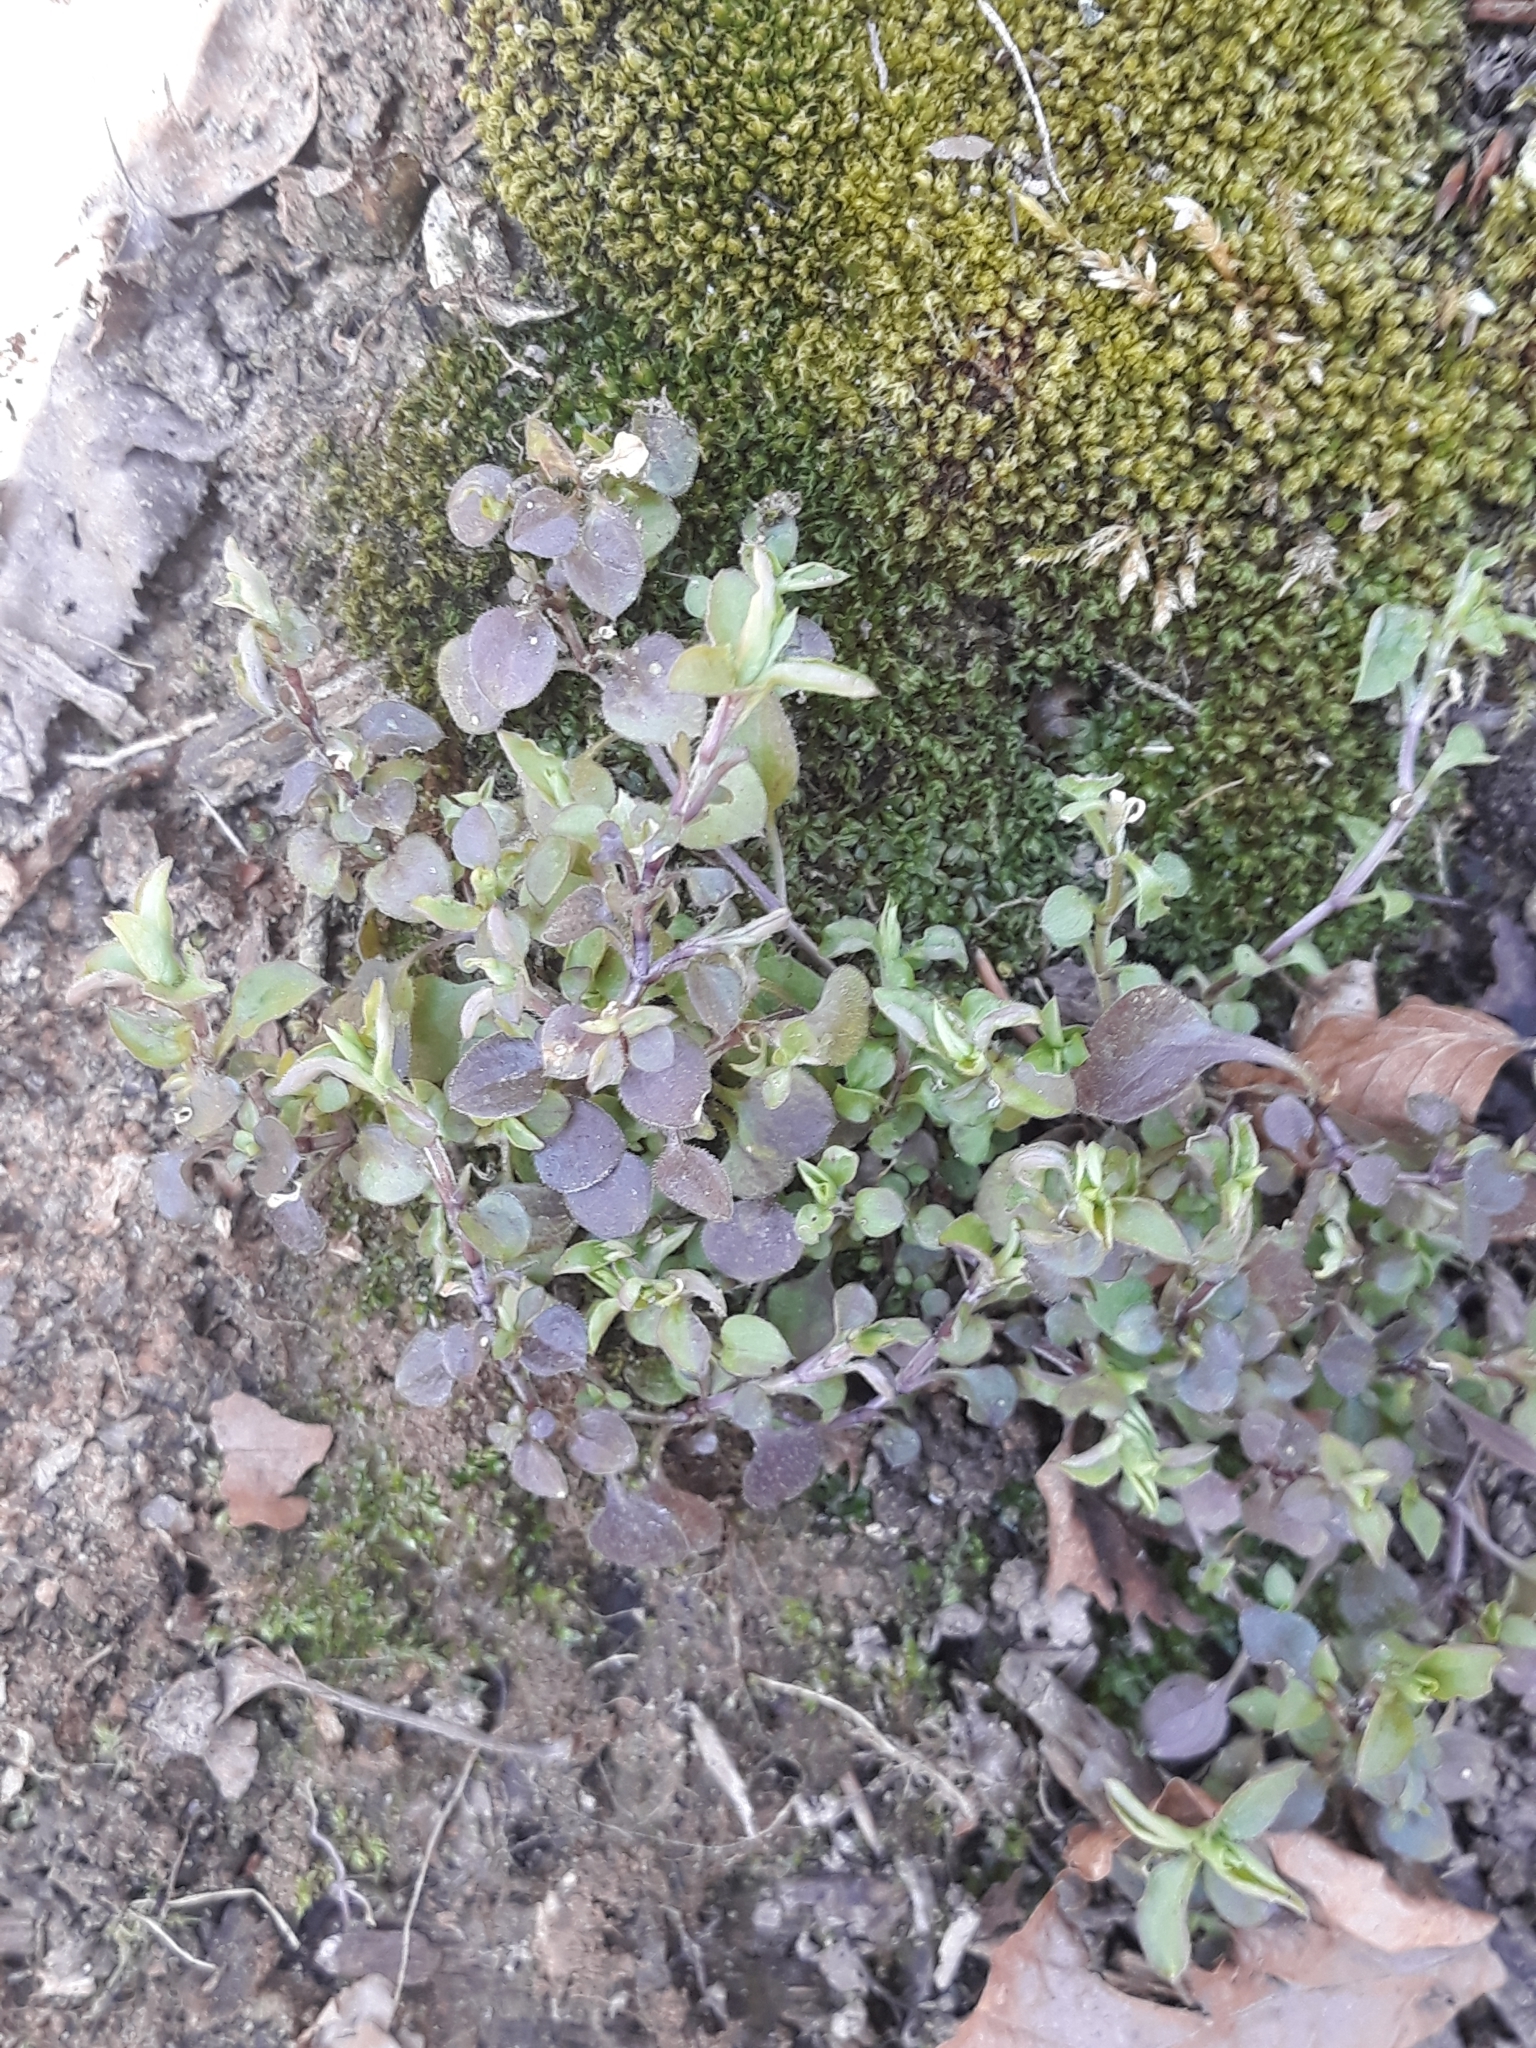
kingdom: Plantae
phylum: Tracheophyta
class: Magnoliopsida
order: Caryophyllales
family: Caryophyllaceae
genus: Moehringia
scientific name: Moehringia trinervia
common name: Three-nerved sandwort
